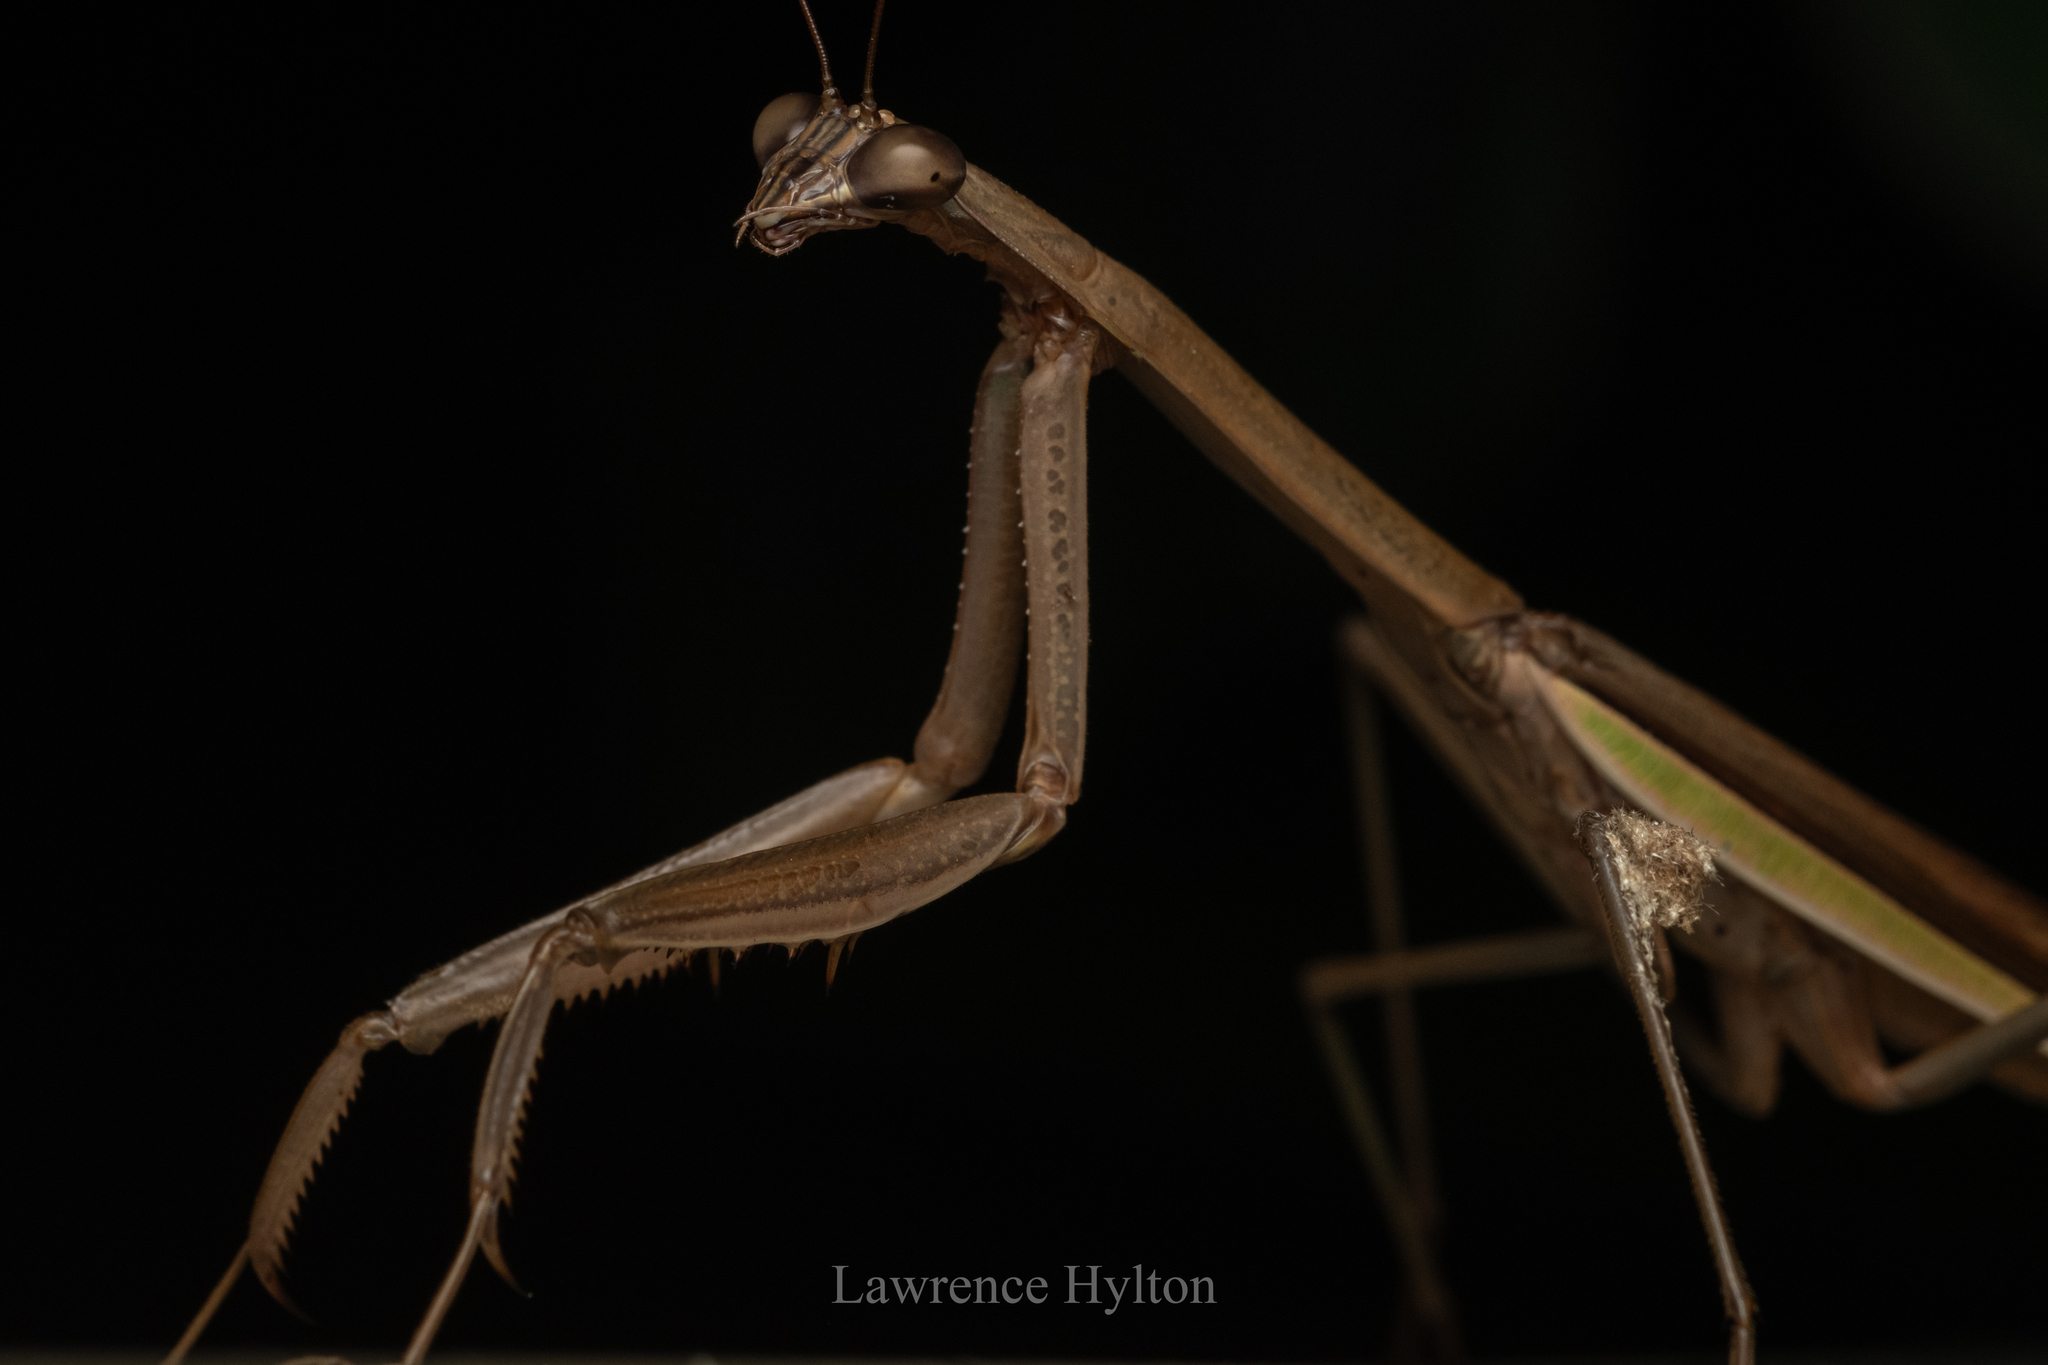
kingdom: Animalia
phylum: Arthropoda
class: Insecta
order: Mantodea
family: Mantidae
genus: Tenodera
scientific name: Tenodera aridifolia
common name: Mantis
